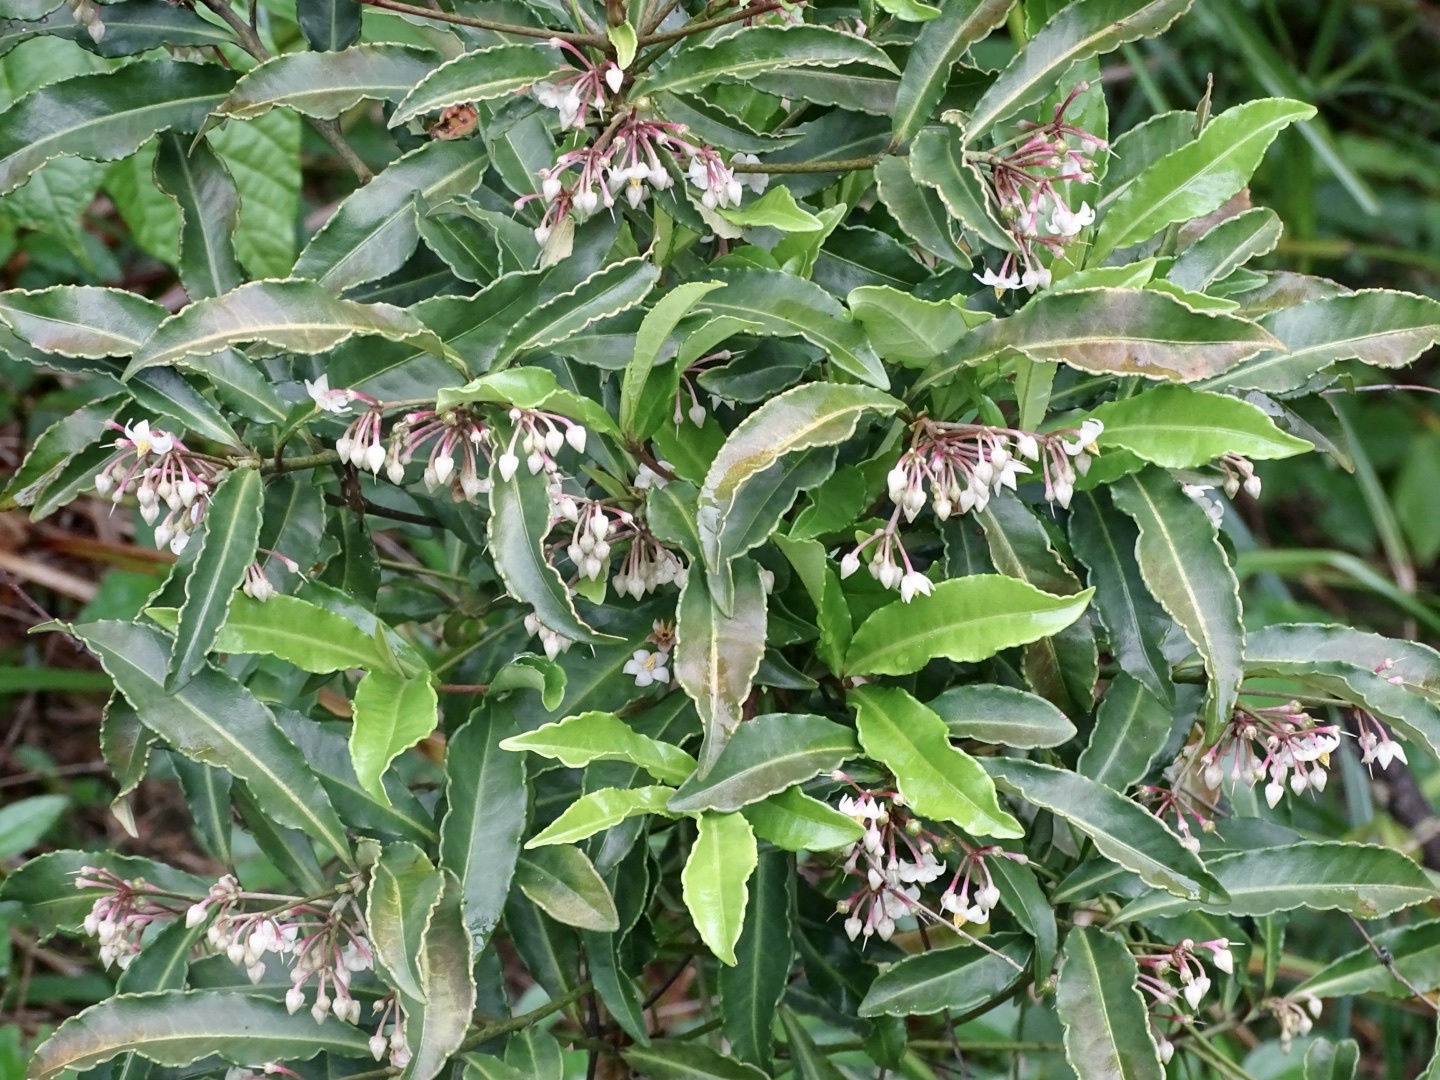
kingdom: Plantae
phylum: Tracheophyta
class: Magnoliopsida
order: Ericales
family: Primulaceae
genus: Ardisia
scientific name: Ardisia crenata
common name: Hen's eyes
